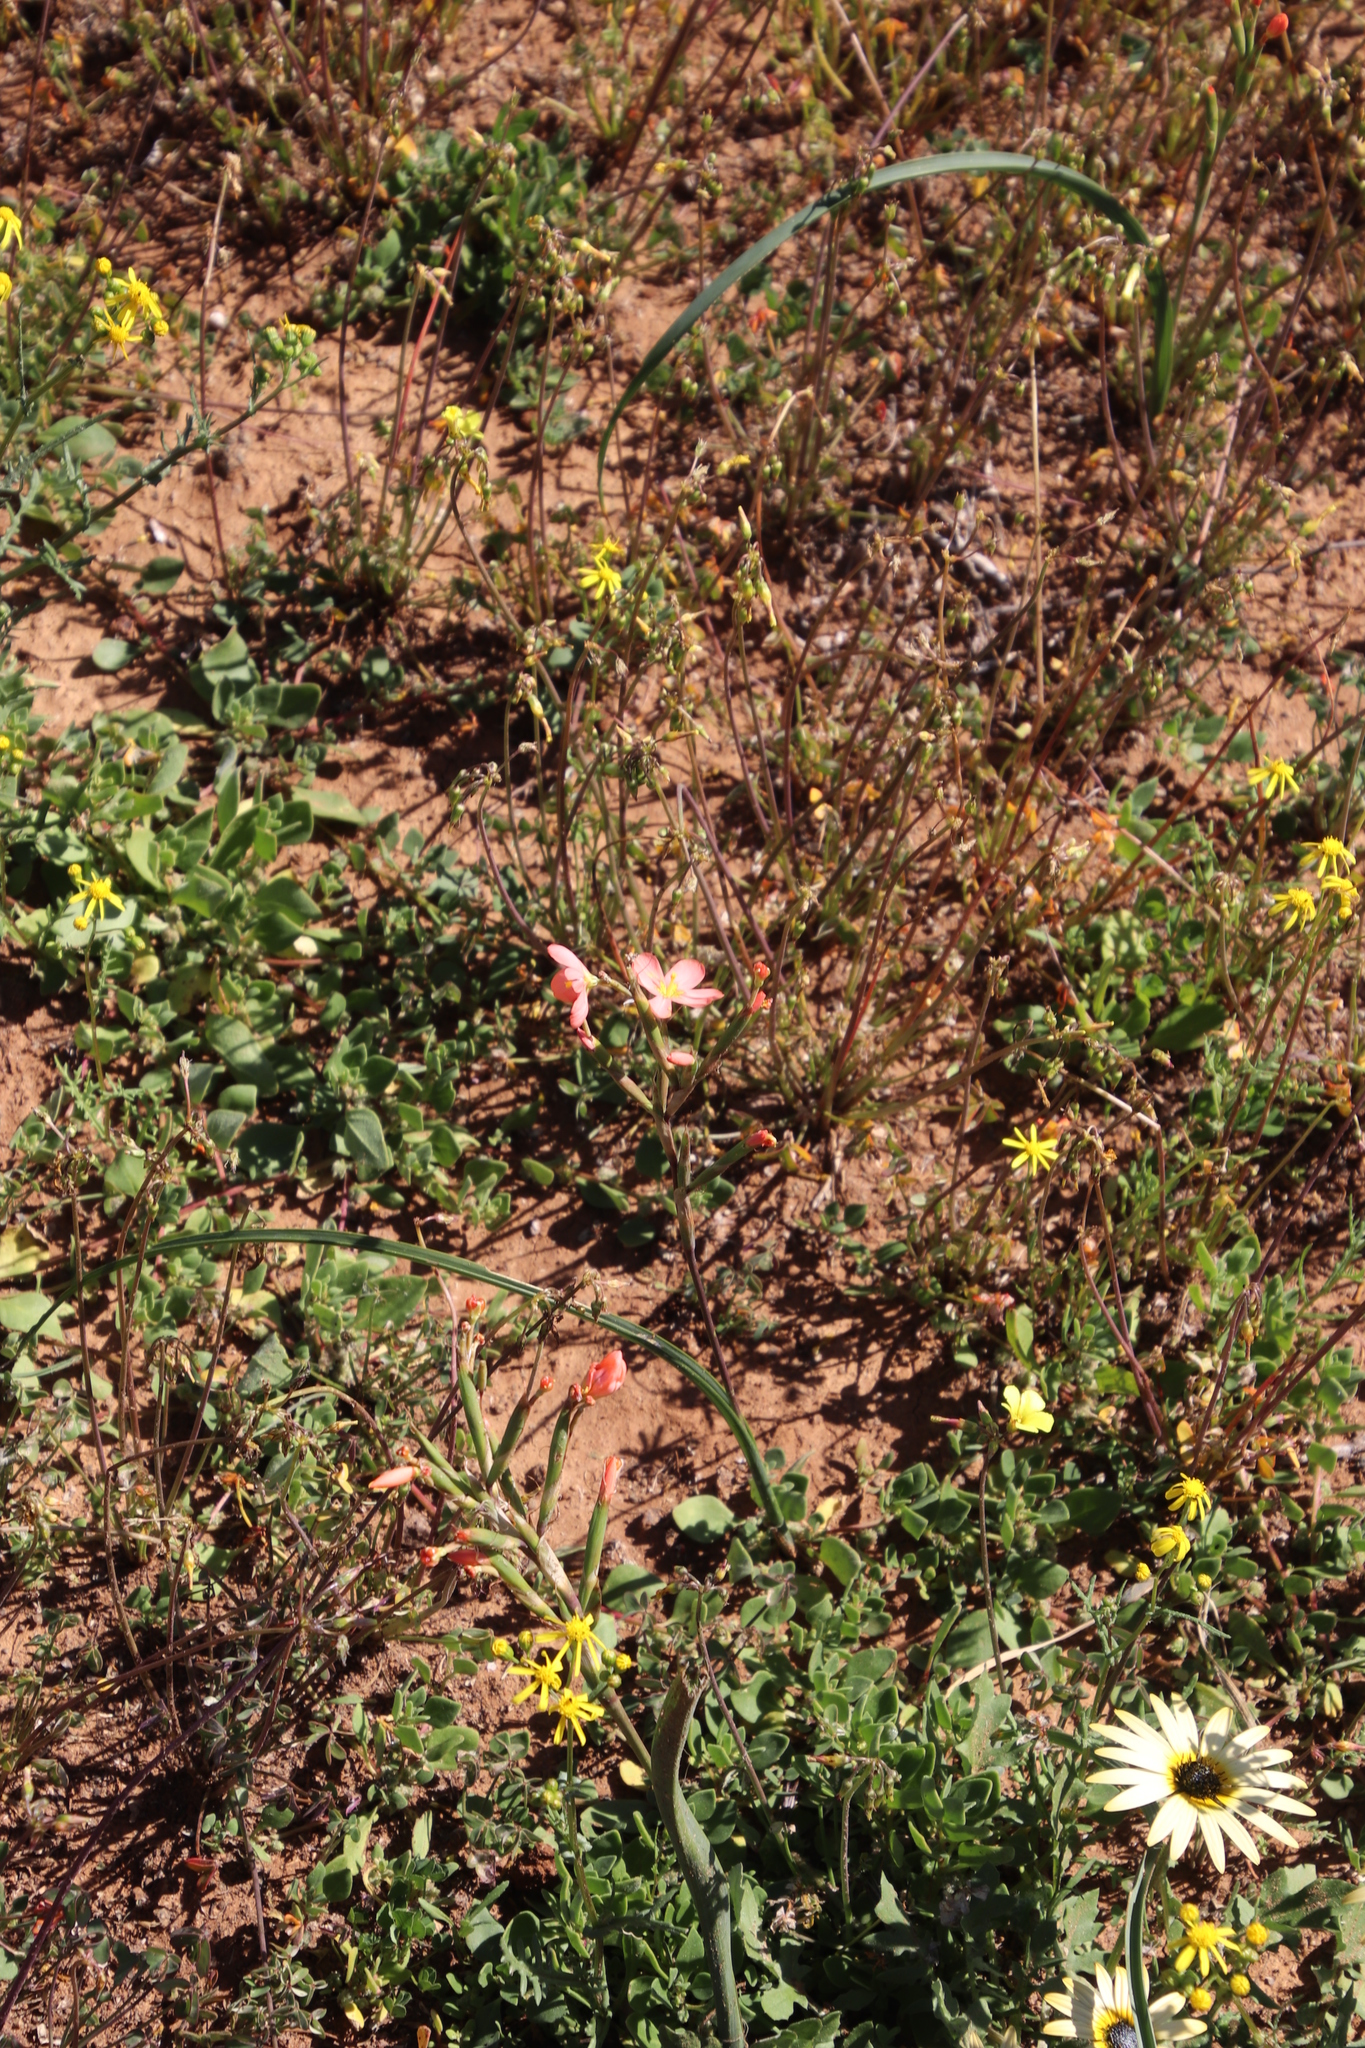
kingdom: Plantae
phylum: Tracheophyta
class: Liliopsida
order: Asparagales
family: Iridaceae
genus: Moraea
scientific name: Moraea miniata
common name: Two-leaf cape-tulip
